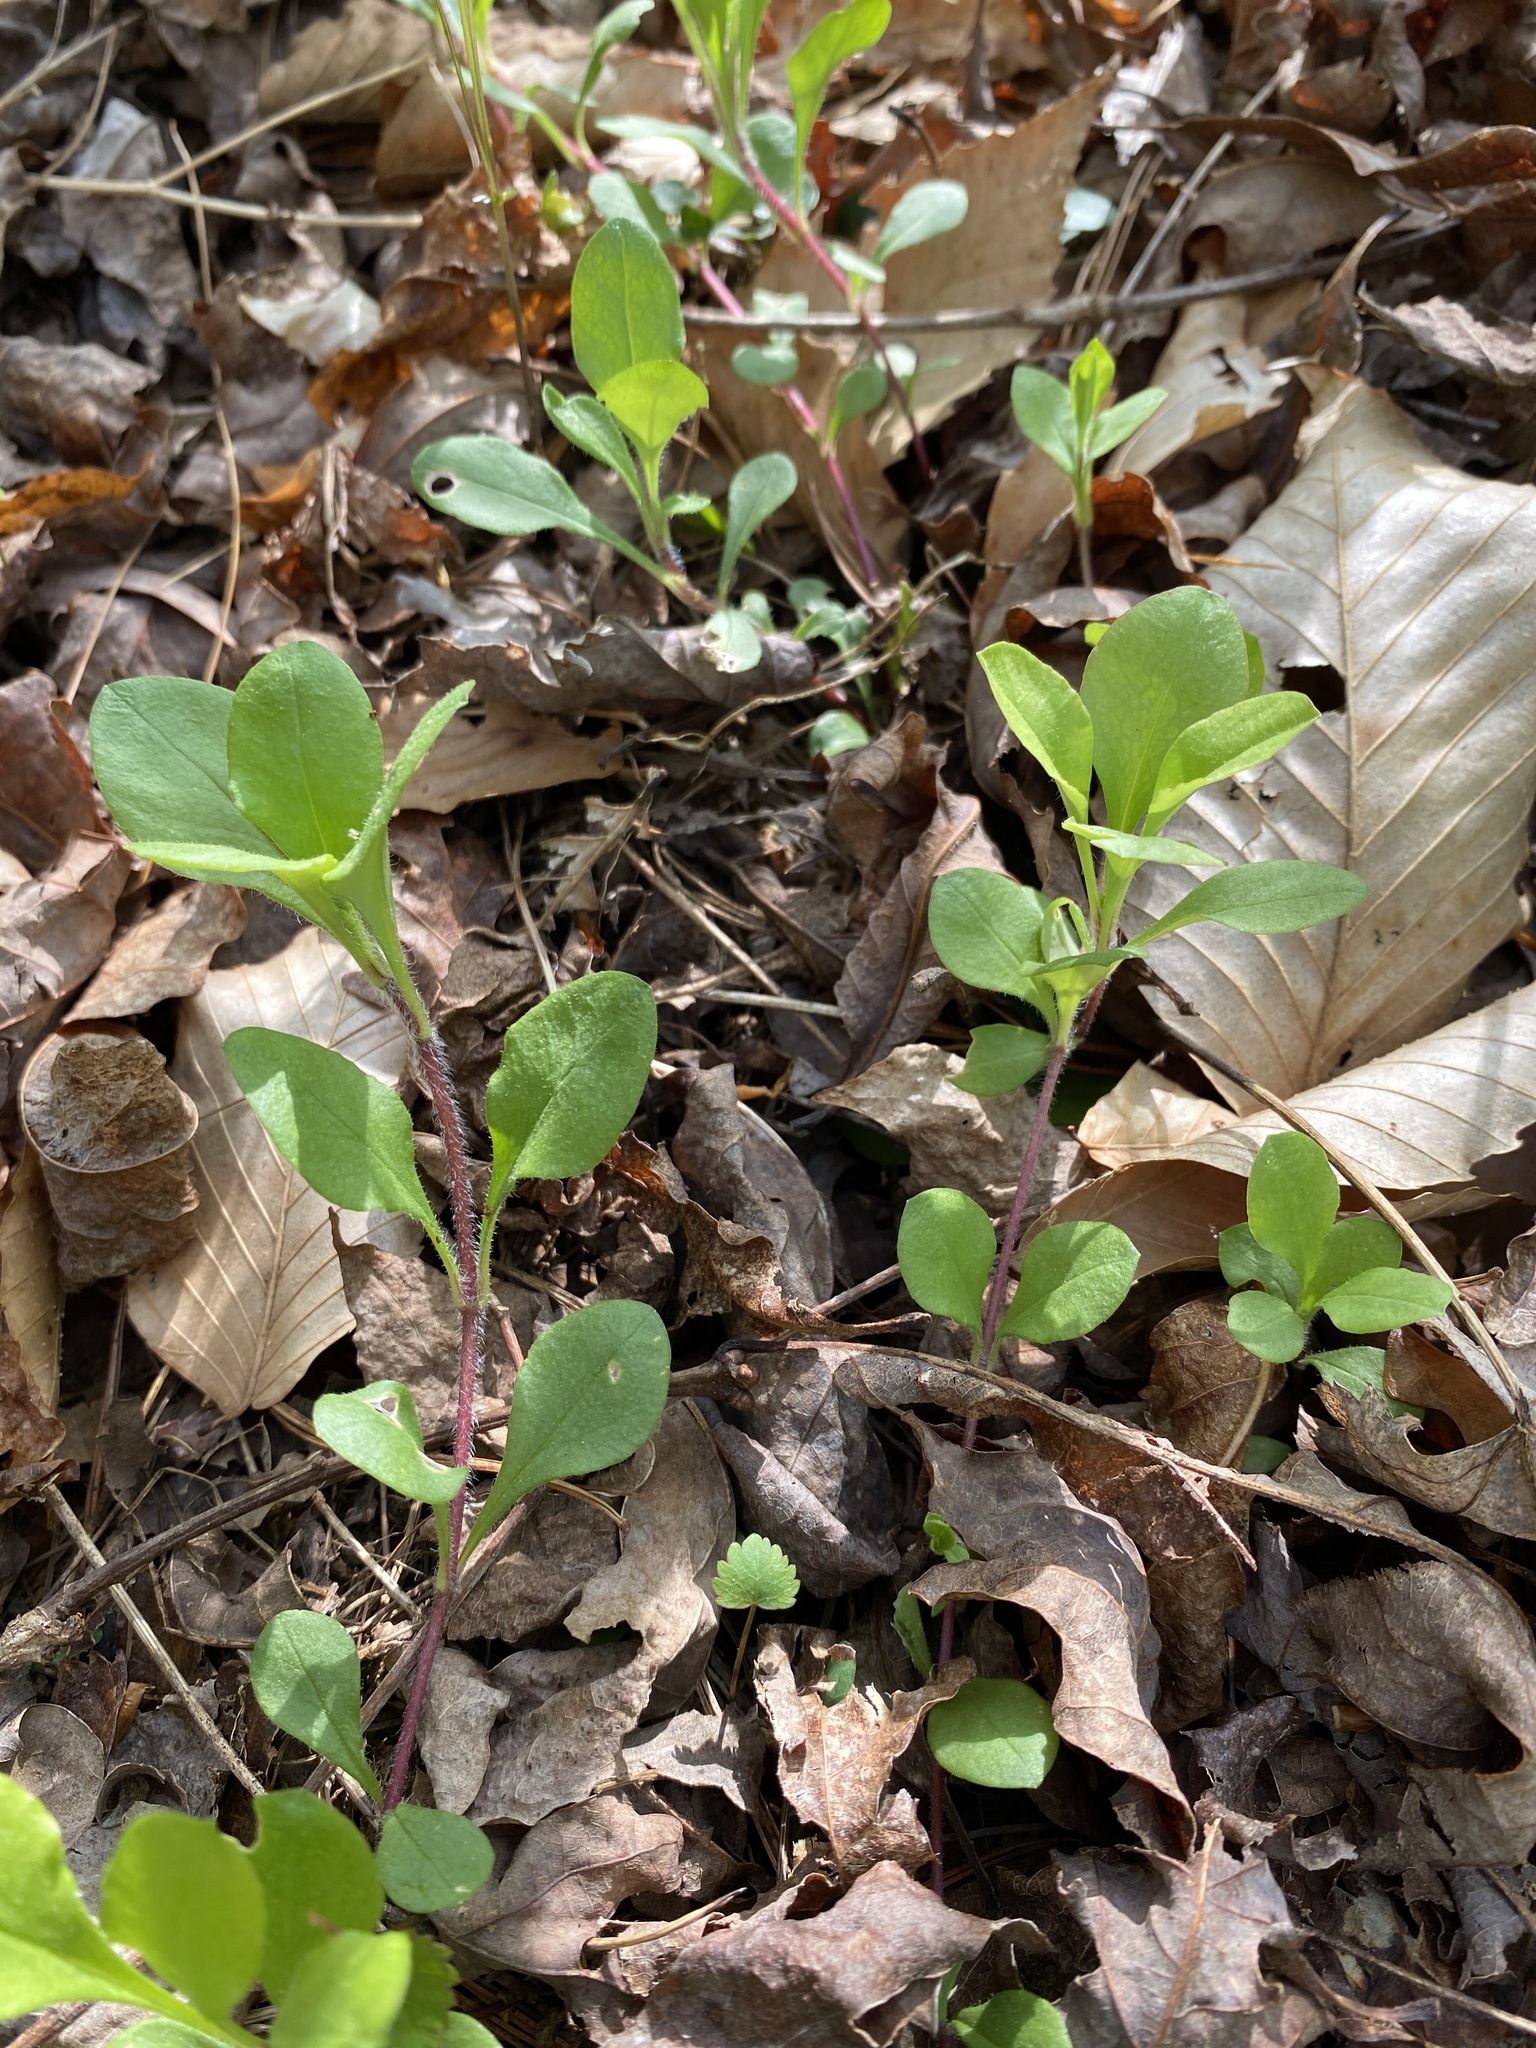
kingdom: Plantae
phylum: Tracheophyta
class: Magnoliopsida
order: Ericales
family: Polemoniaceae
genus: Phlox
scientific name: Phlox stolonifera
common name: Creeping phlox
